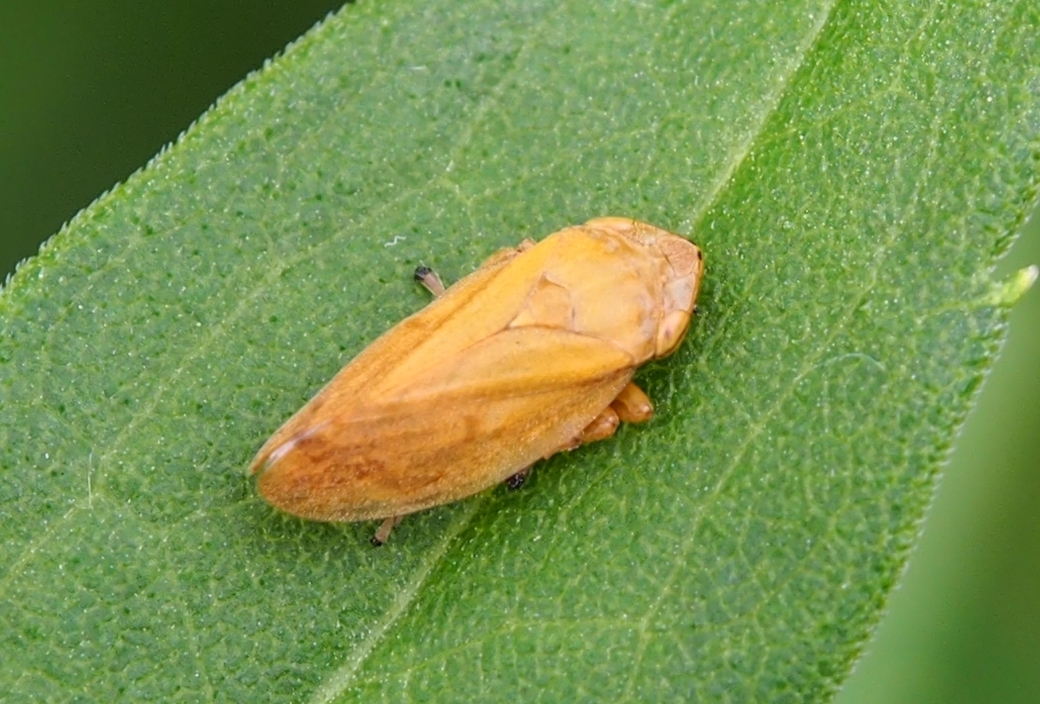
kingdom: Animalia
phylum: Arthropoda
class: Insecta
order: Hemiptera
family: Aphrophoridae
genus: Philaenus
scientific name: Philaenus spumarius
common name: Meadow spittlebug
